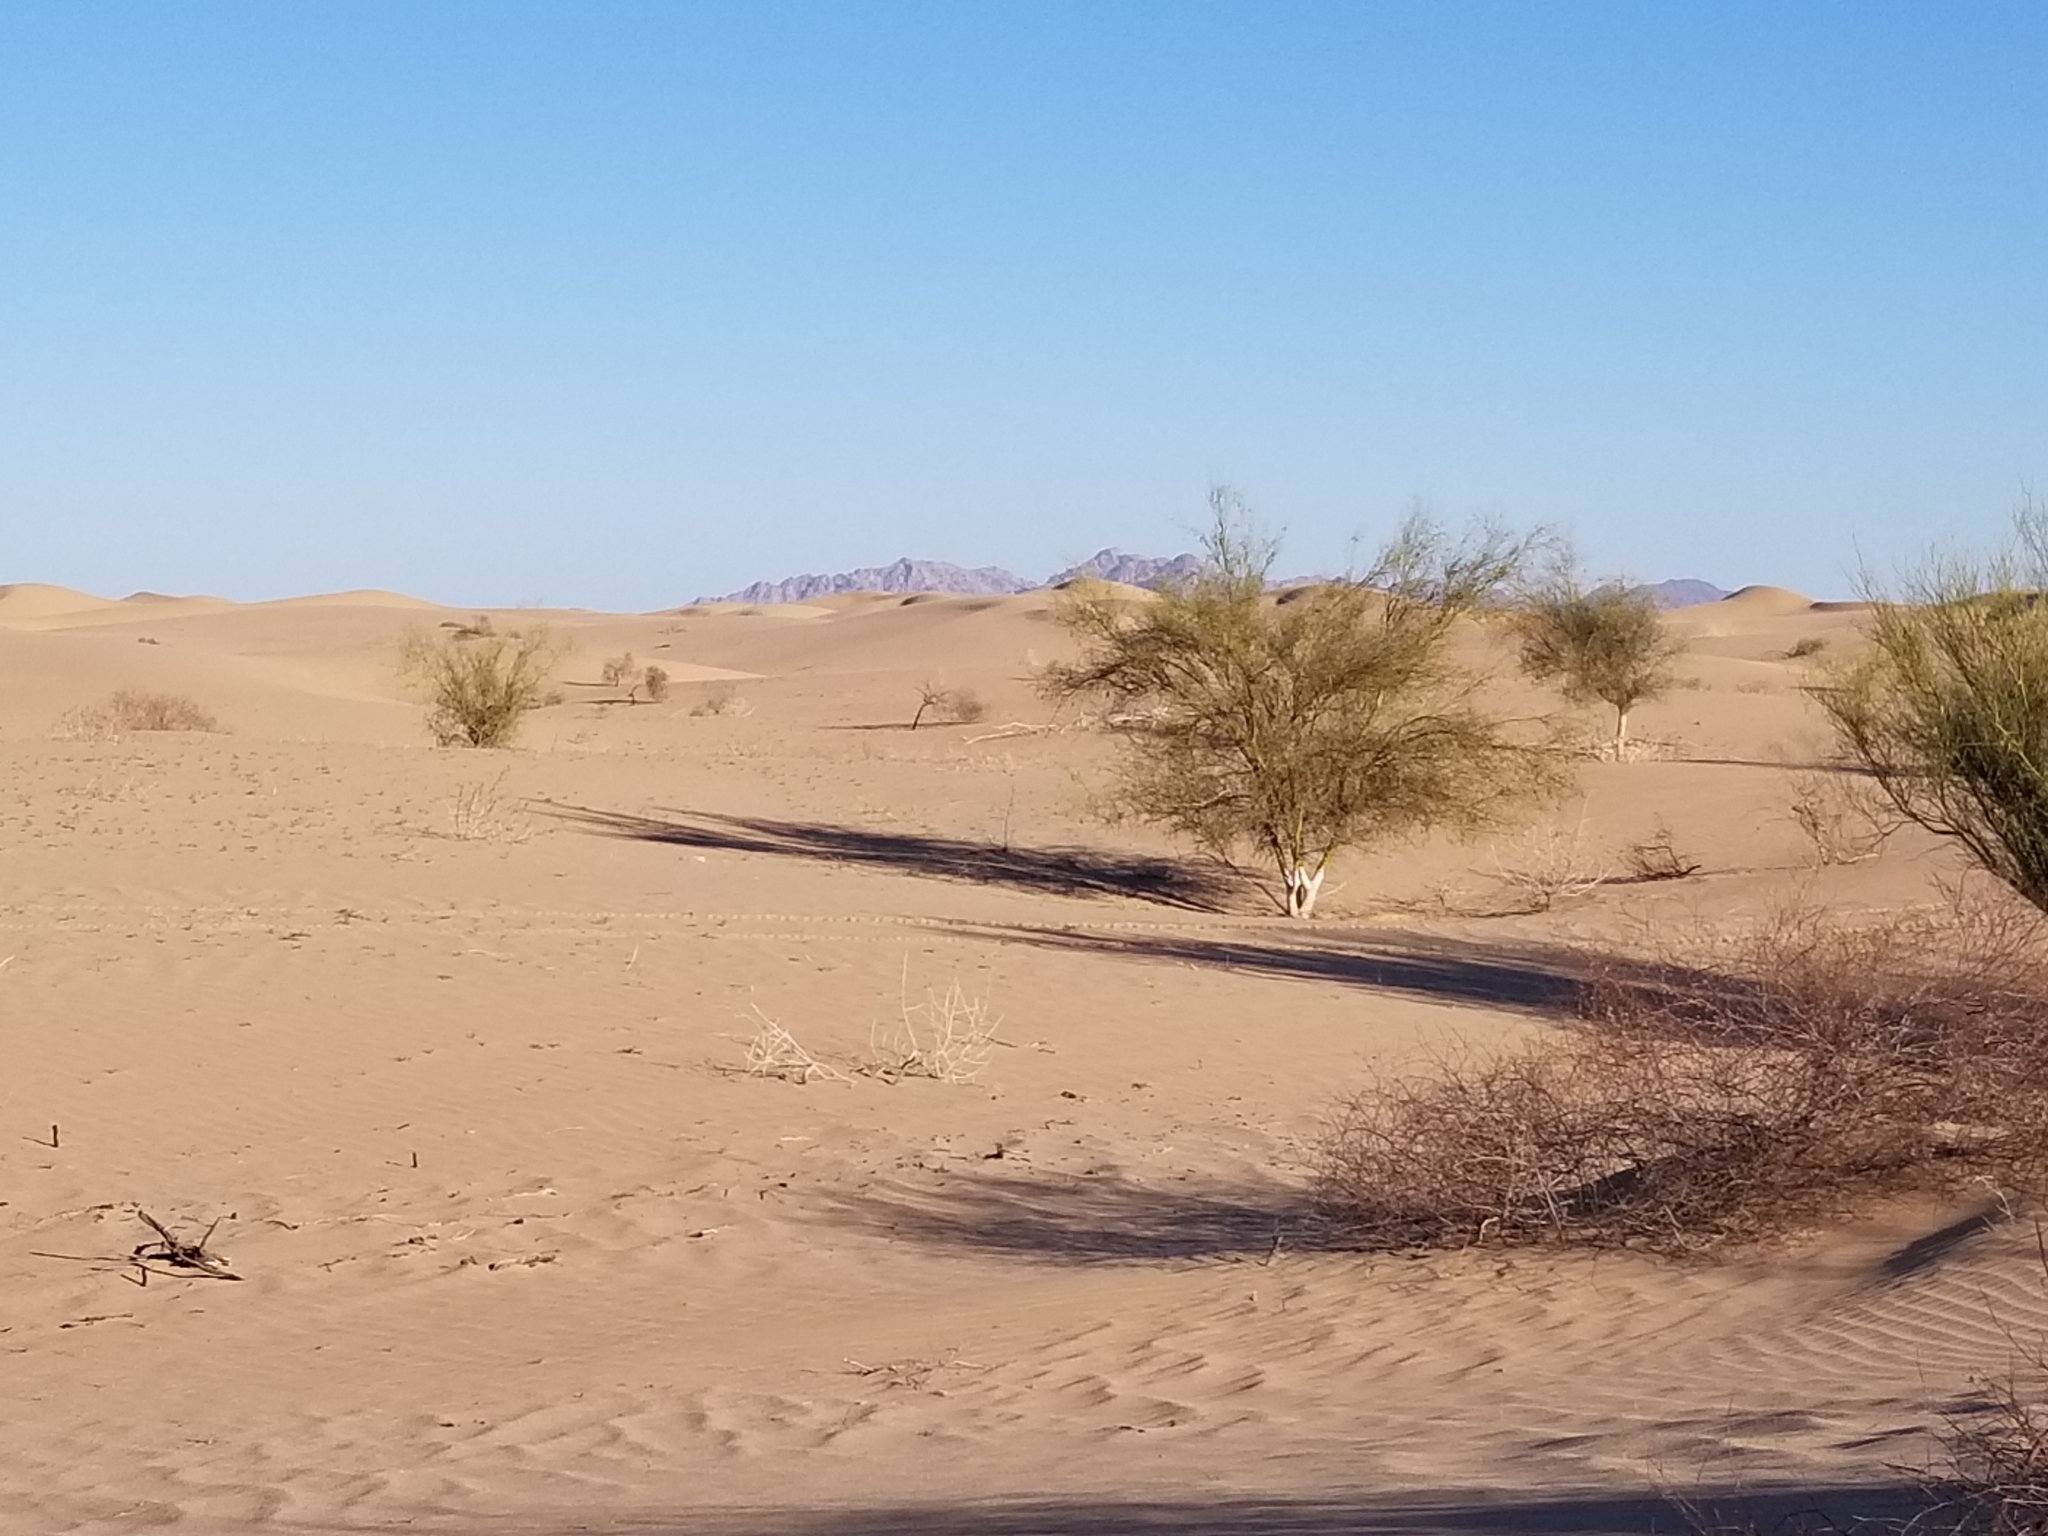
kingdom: Plantae
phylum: Tracheophyta
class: Magnoliopsida
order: Fabales
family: Fabaceae
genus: Parkinsonia
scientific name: Parkinsonia florida
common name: Blue paloverde
